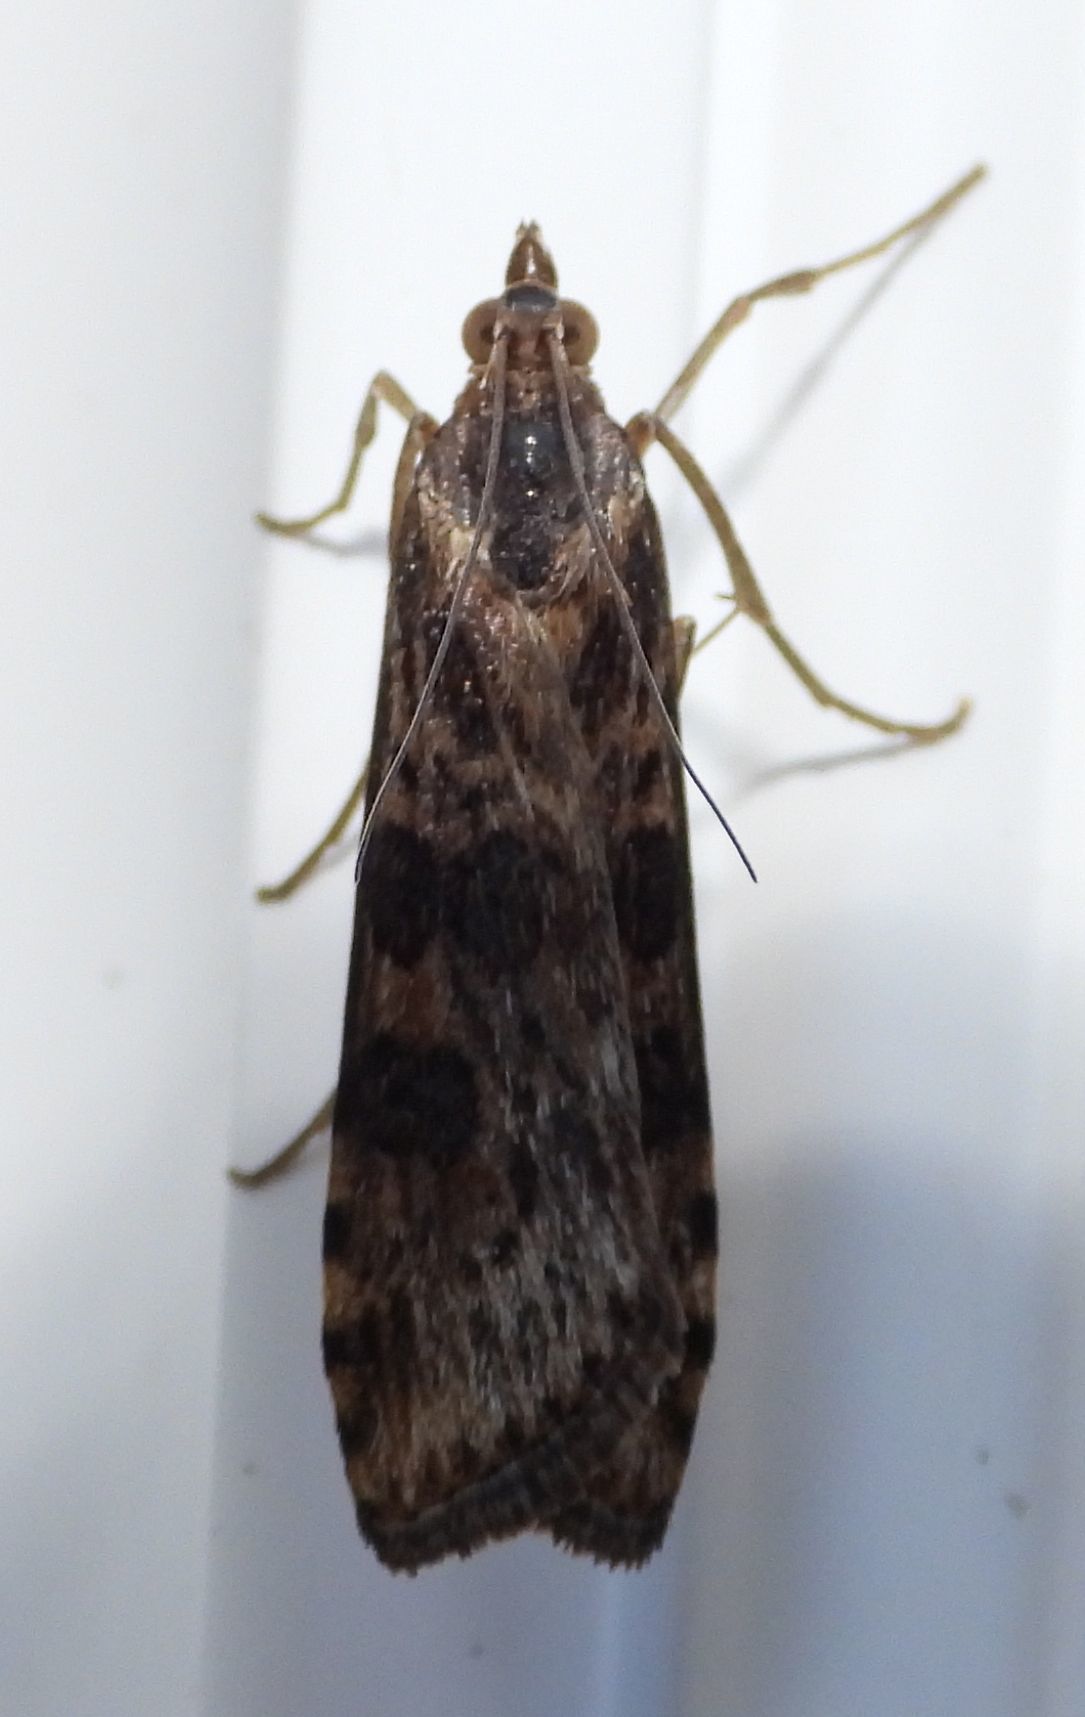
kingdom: Animalia
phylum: Arthropoda
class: Insecta
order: Lepidoptera
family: Crambidae
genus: Nomophila
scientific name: Nomophila nearctica
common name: American rush veneer
